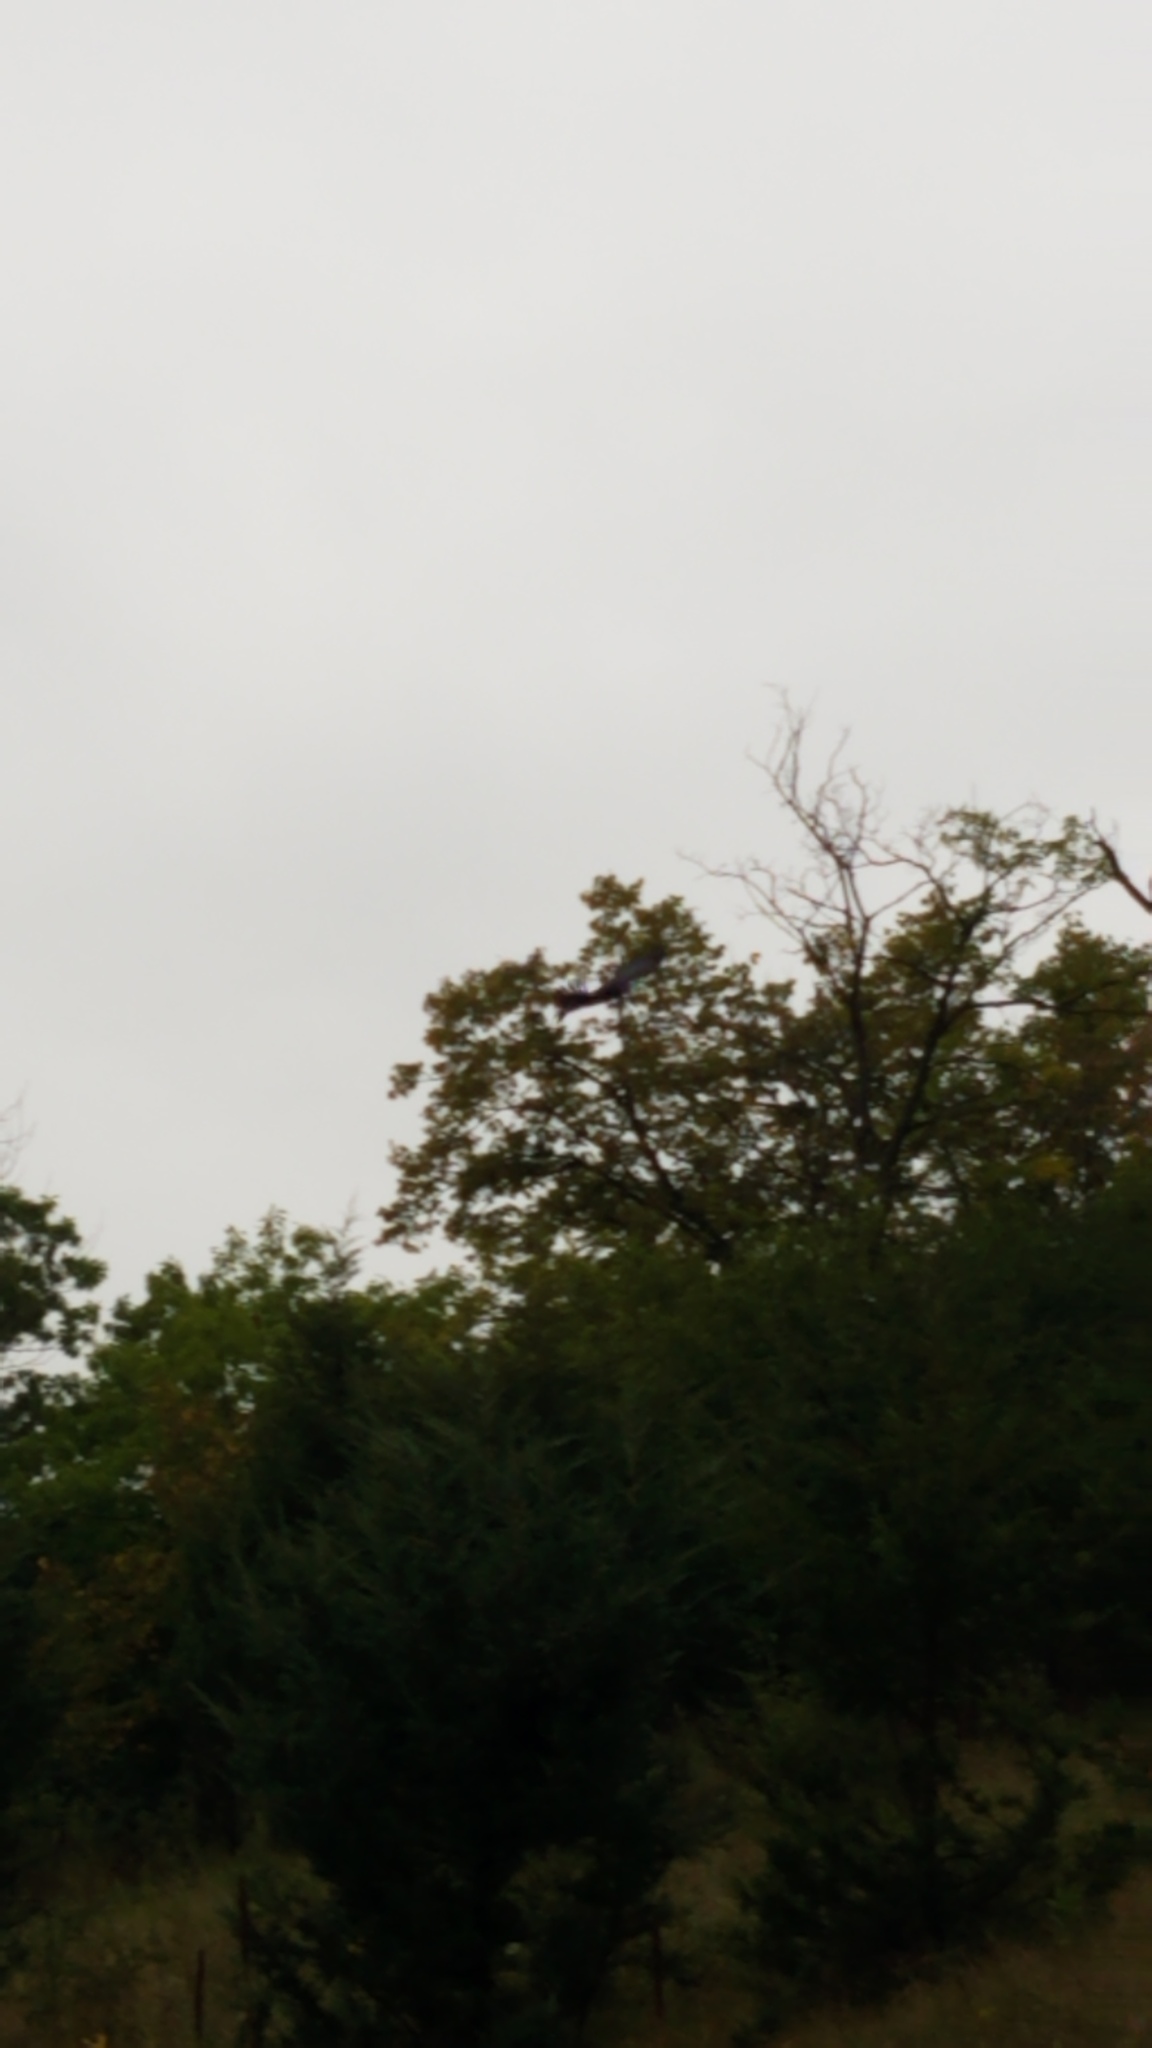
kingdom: Animalia
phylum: Chordata
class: Aves
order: Accipitriformes
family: Cathartidae
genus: Cathartes
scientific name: Cathartes aura
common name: Turkey vulture
